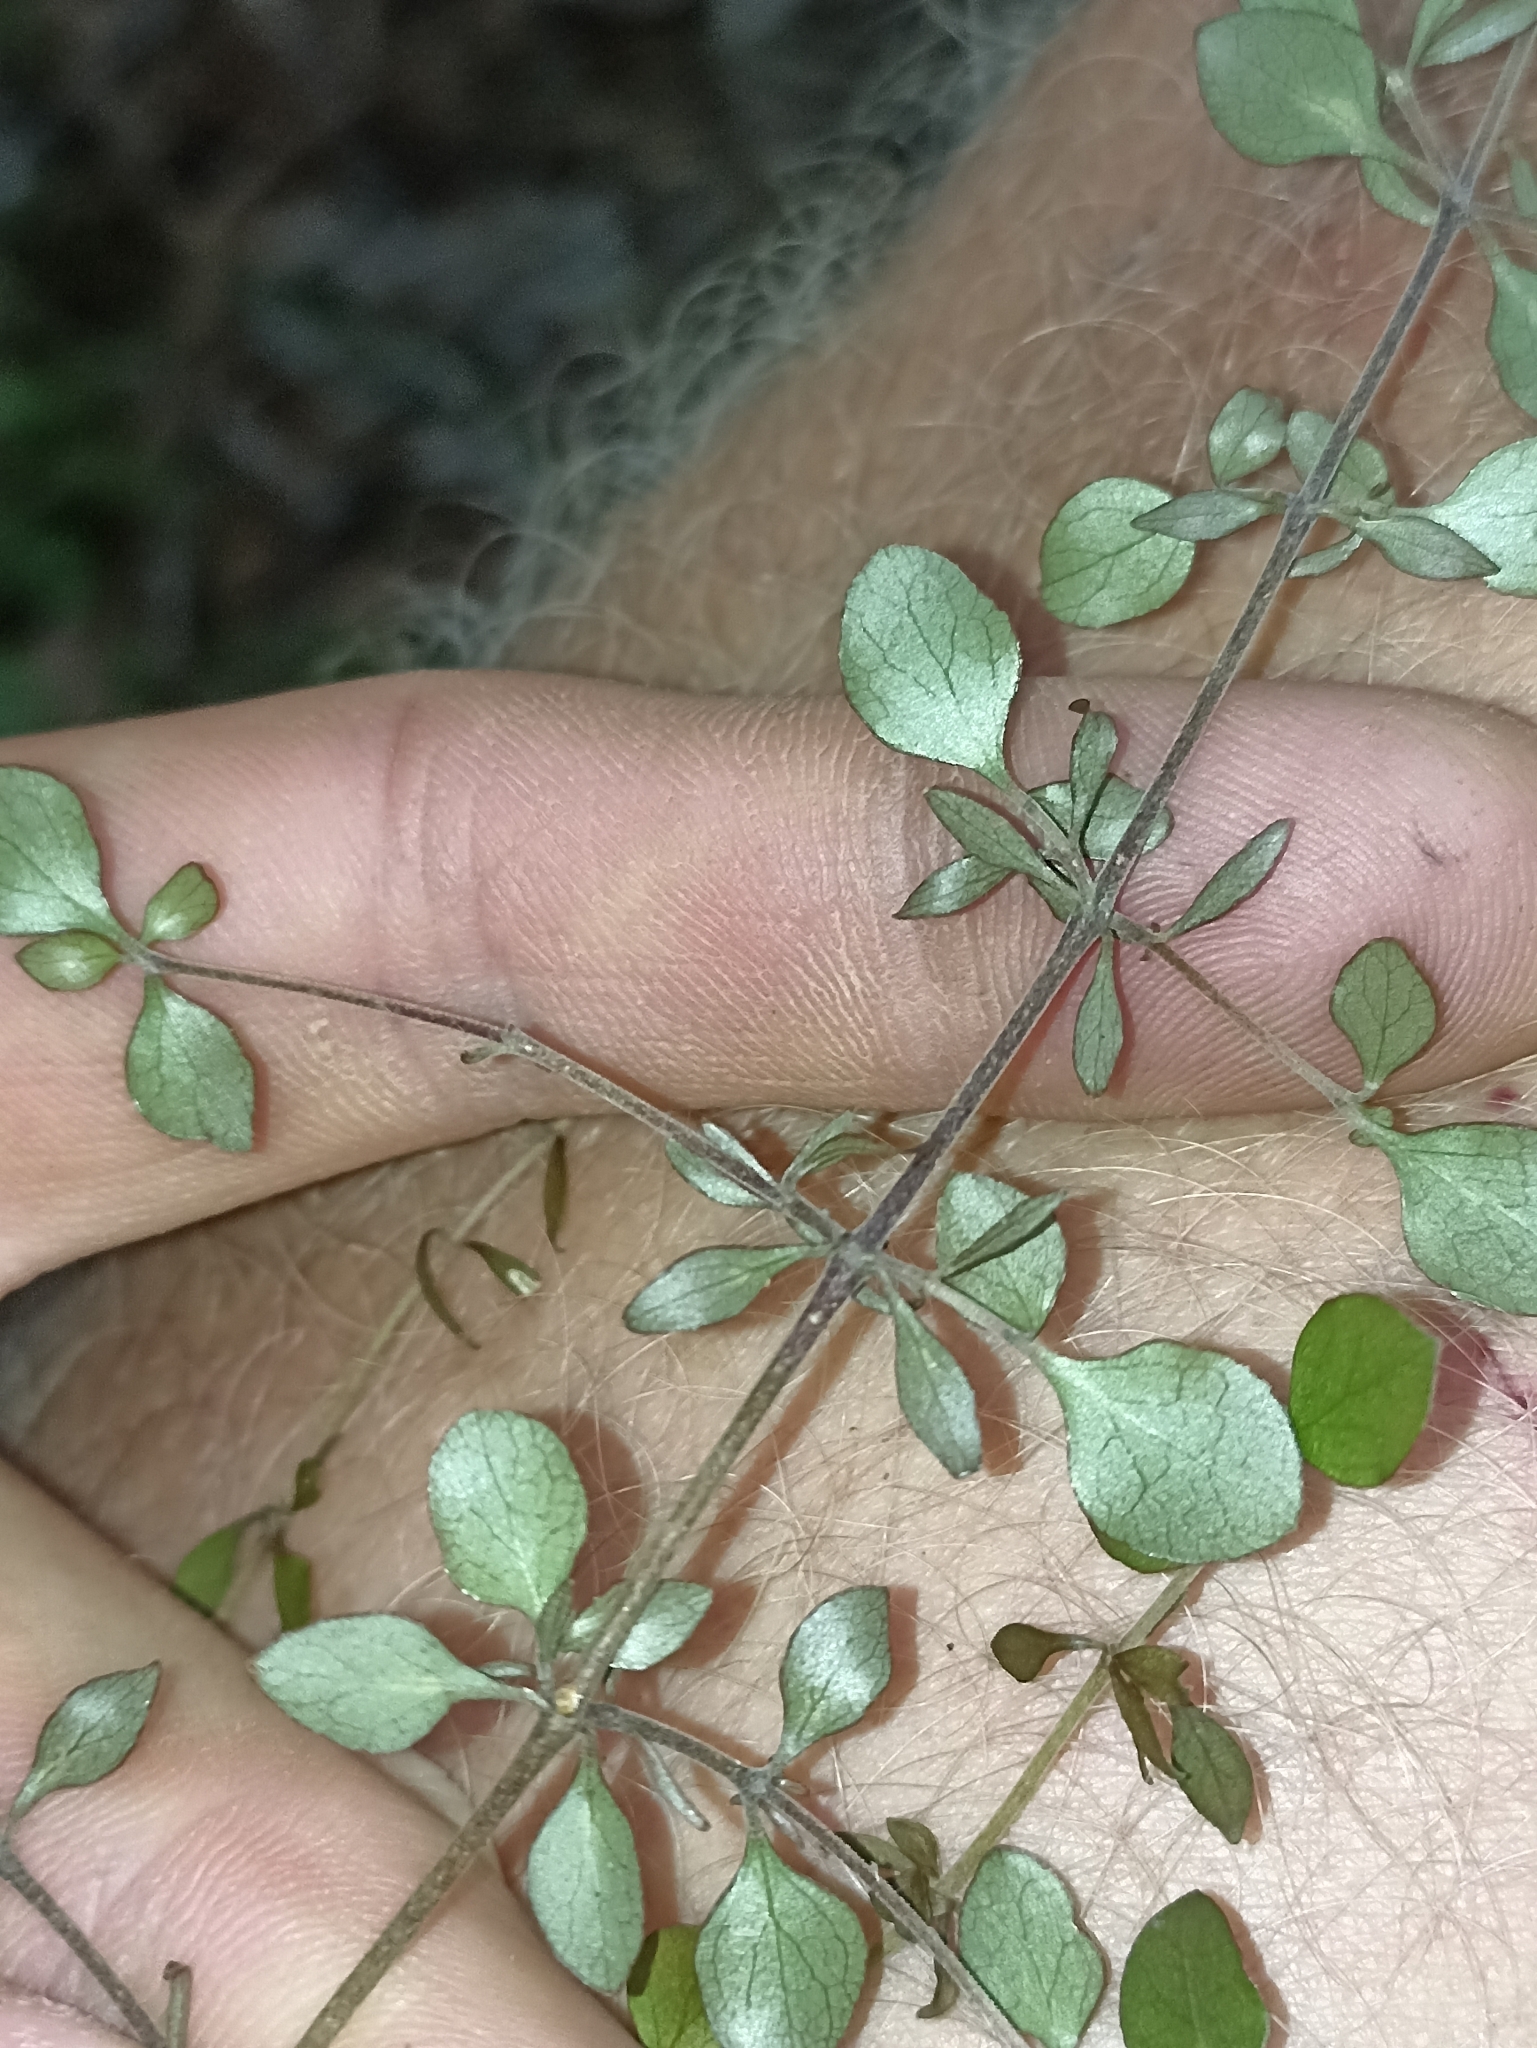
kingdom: Plantae
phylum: Tracheophyta
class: Magnoliopsida
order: Gentianales
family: Rubiaceae
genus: Coprosma
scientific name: Coprosma rhamnoides
